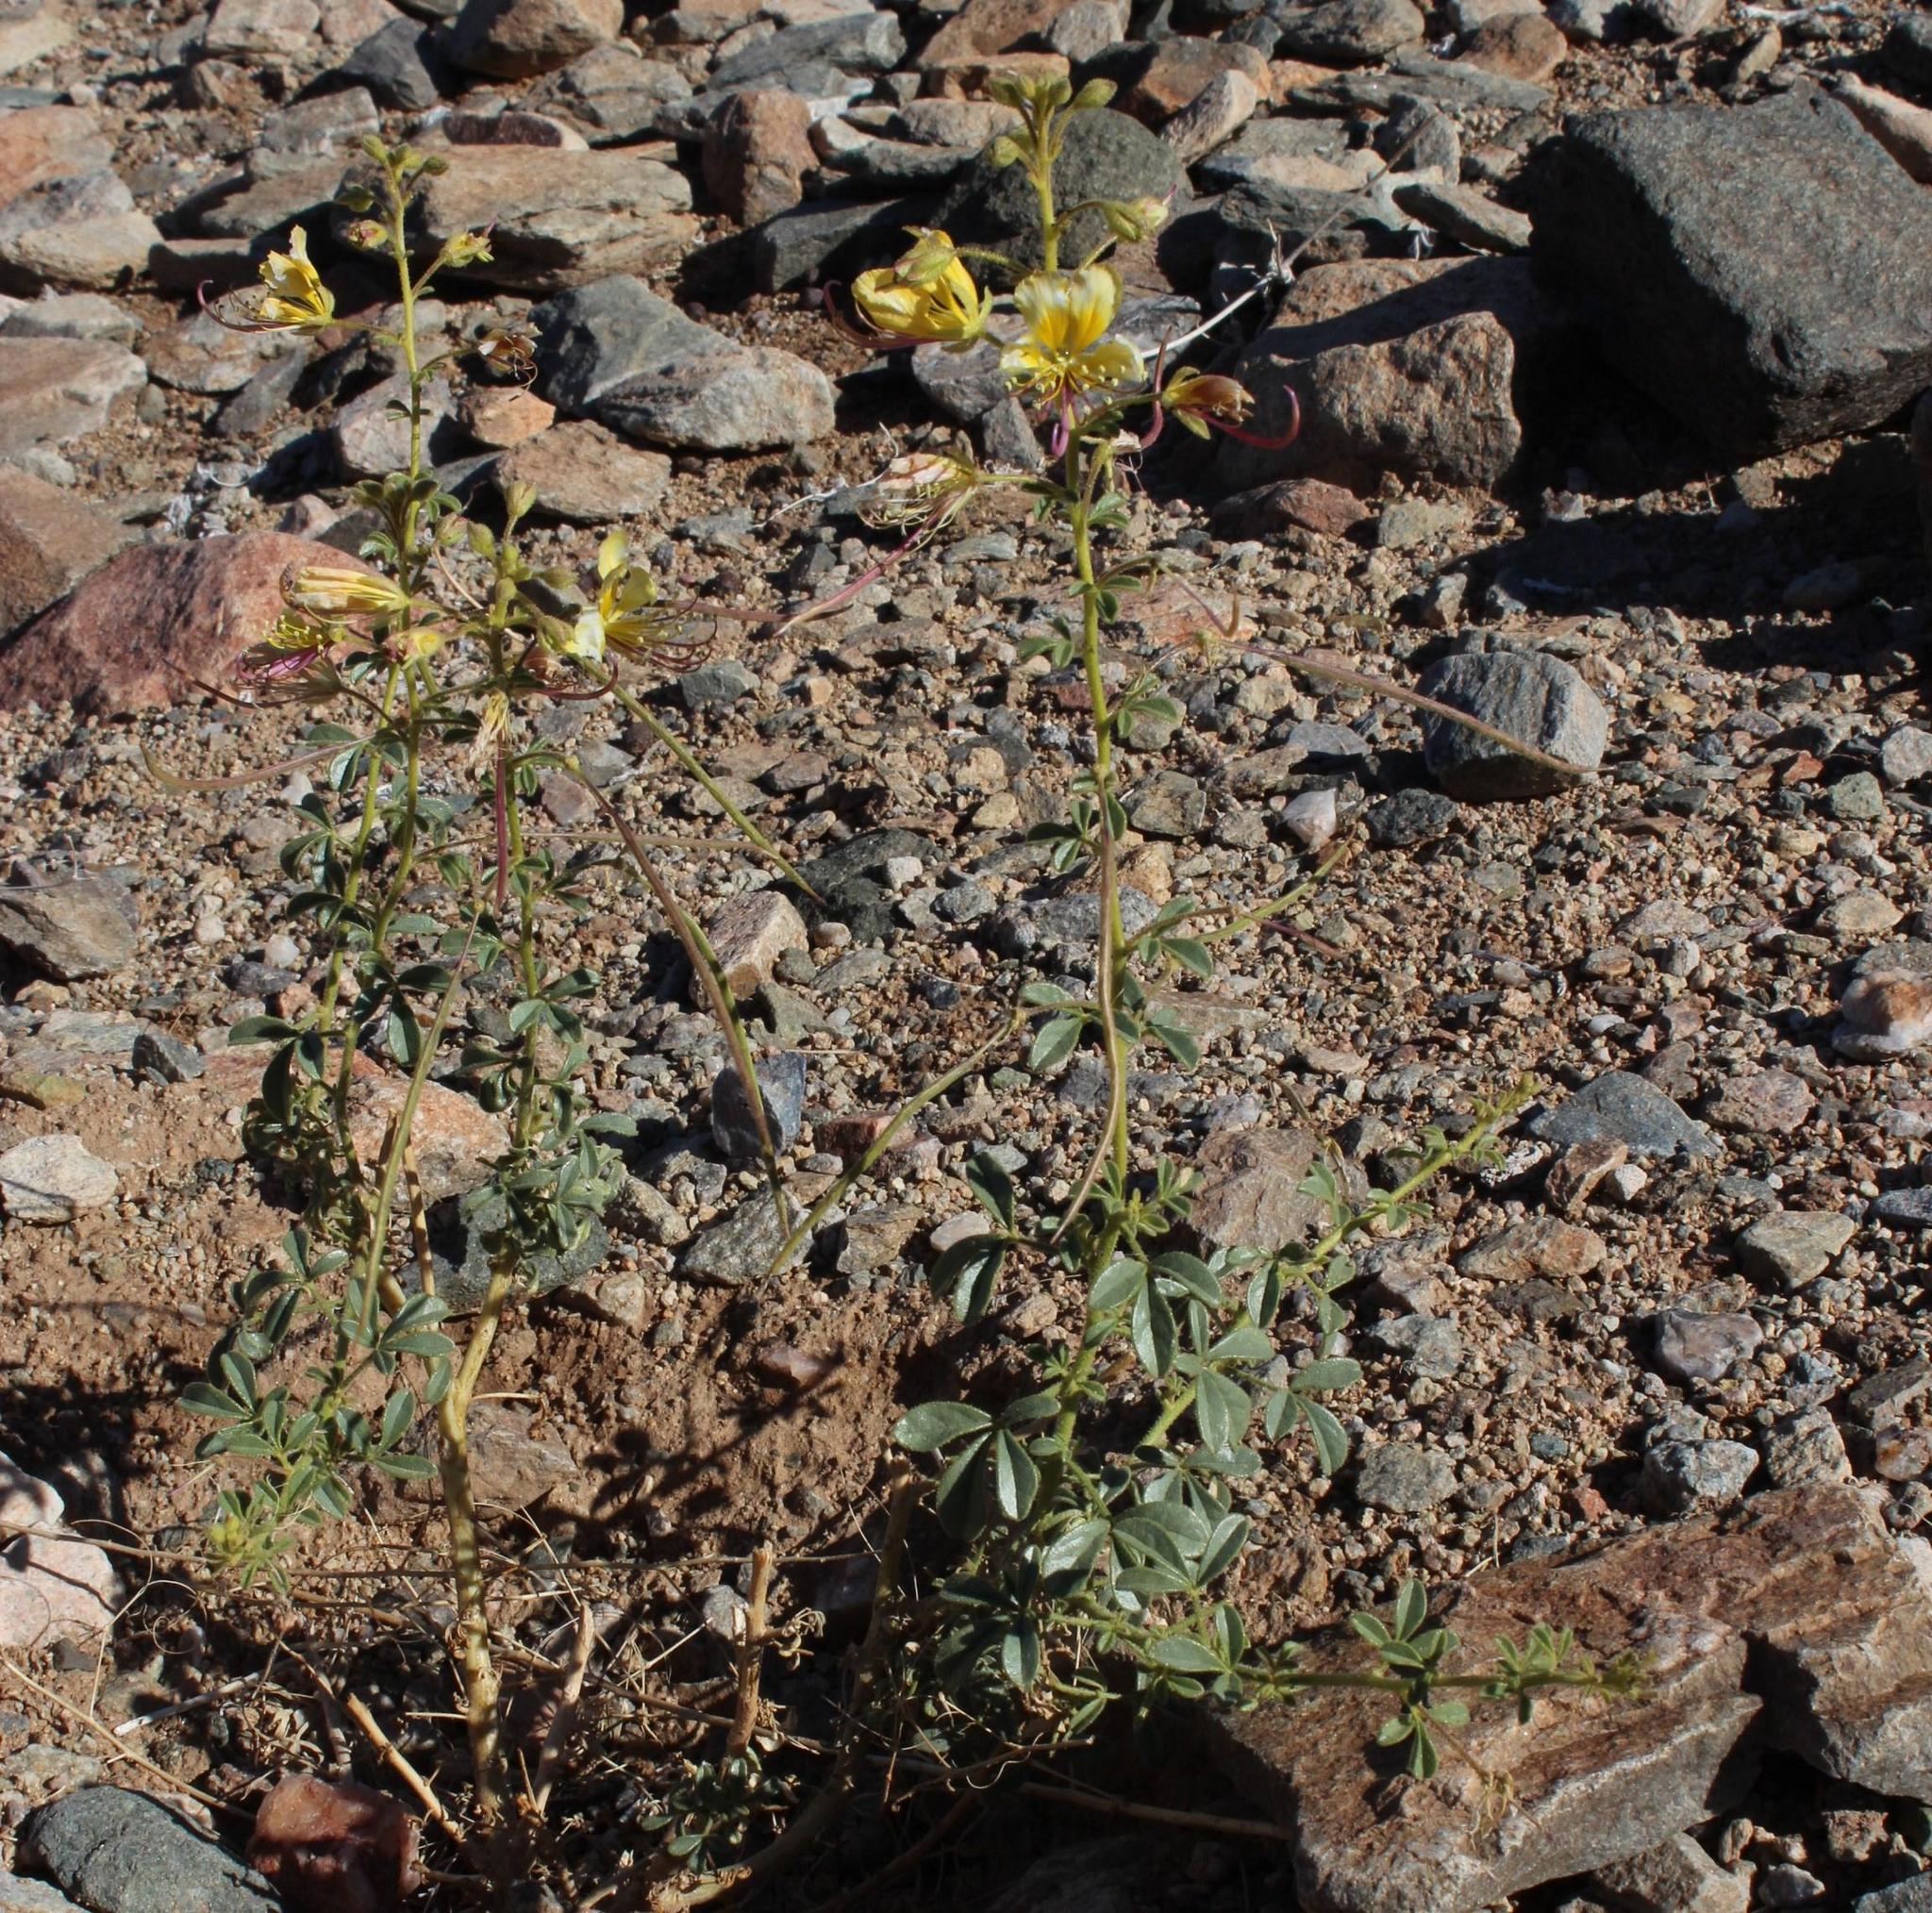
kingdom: Plantae
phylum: Tracheophyta
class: Magnoliopsida
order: Brassicales
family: Cleomaceae
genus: Kersia
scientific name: Kersia foliosa
